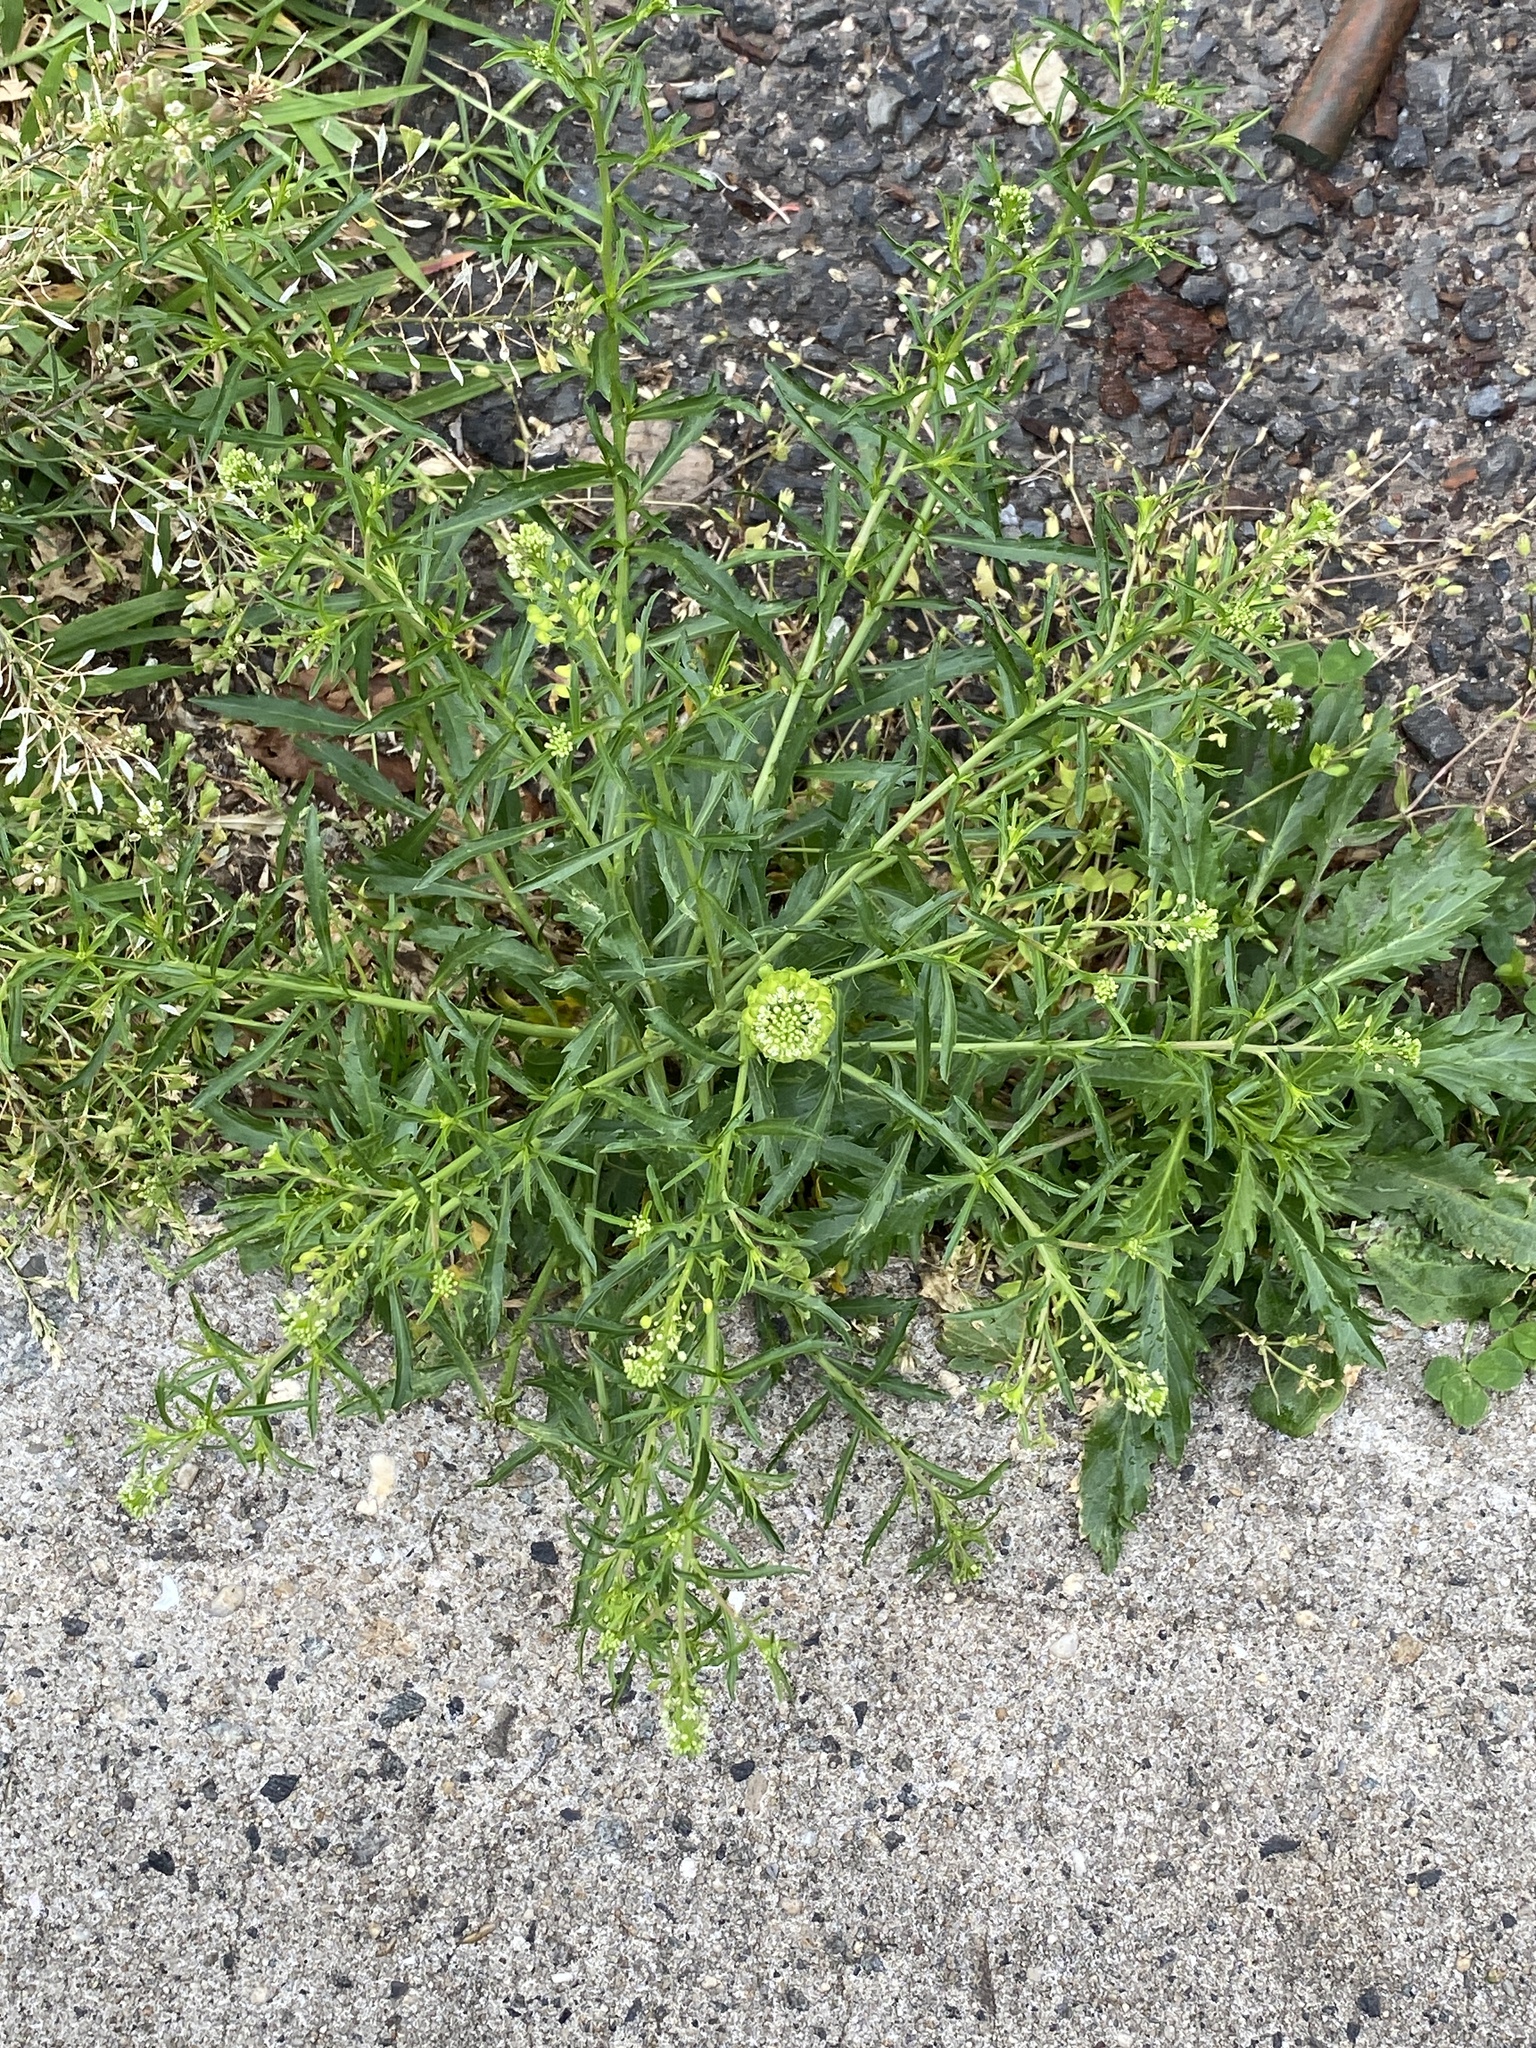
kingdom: Plantae
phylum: Tracheophyta
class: Magnoliopsida
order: Brassicales
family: Brassicaceae
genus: Lepidium
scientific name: Lepidium virginicum
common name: Least pepperwort
